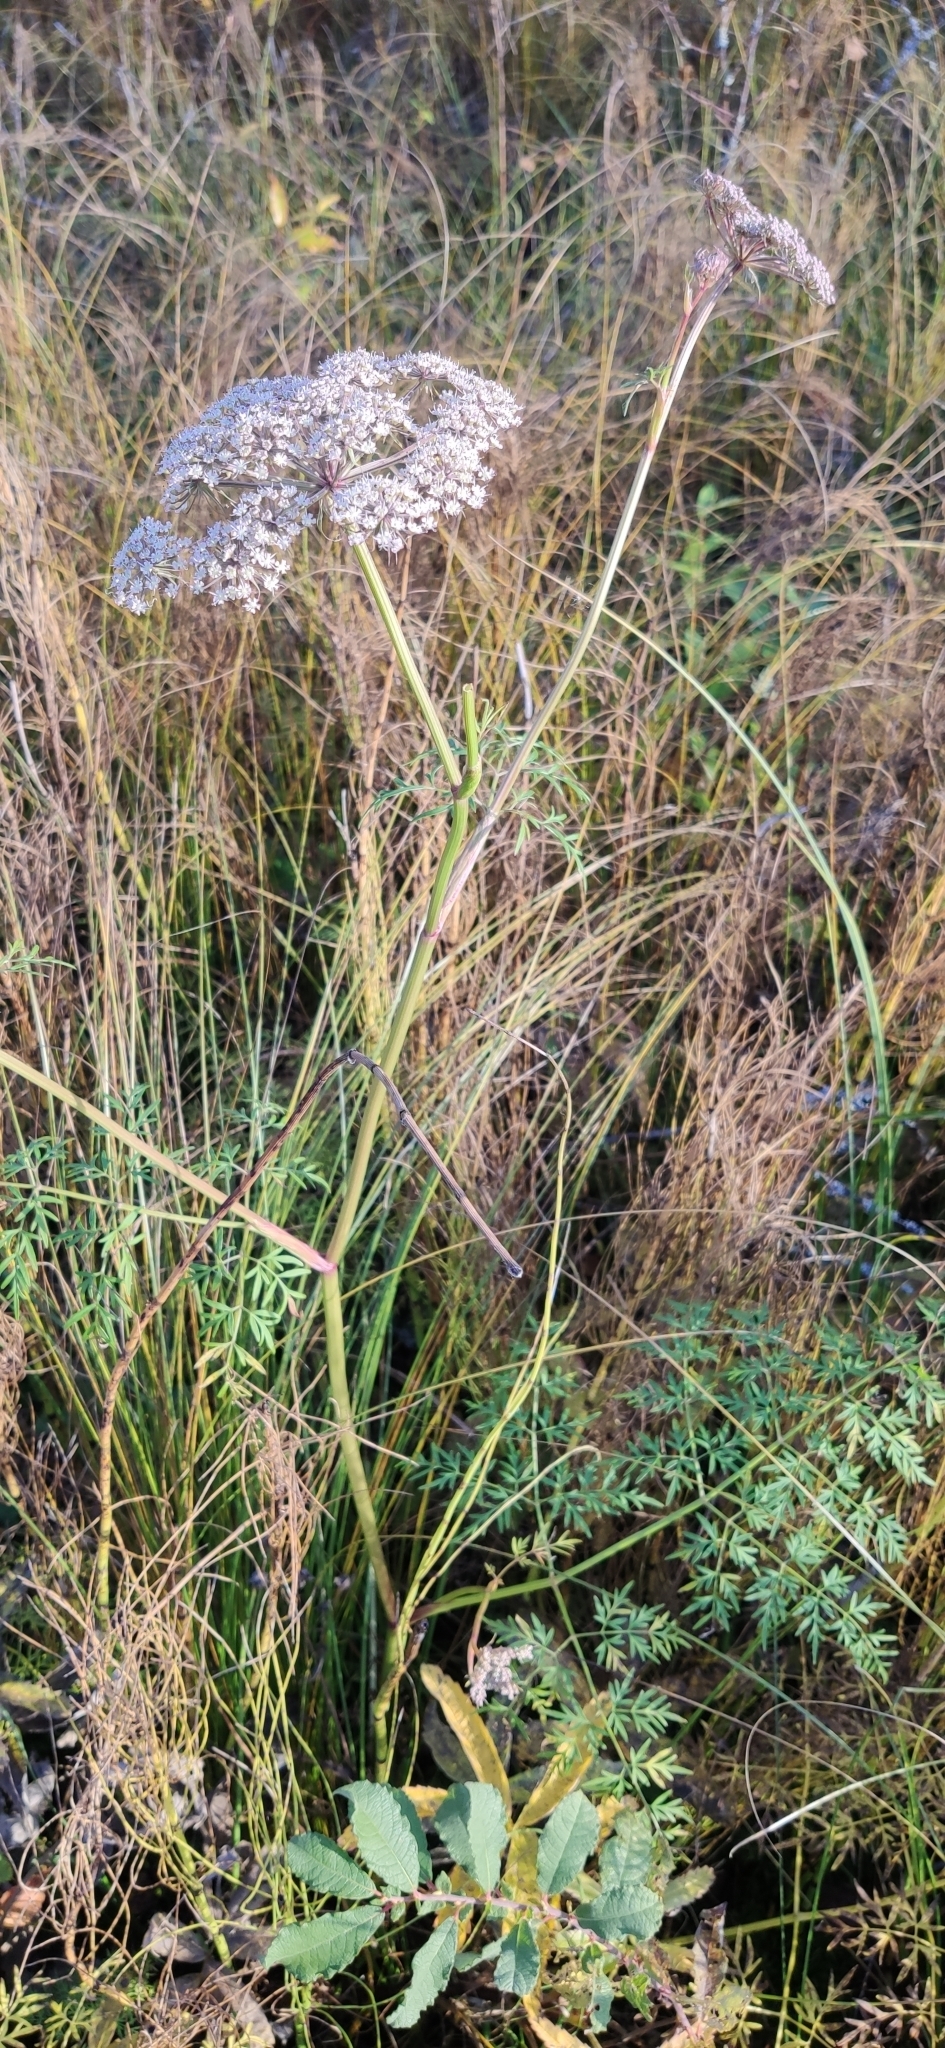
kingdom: Plantae
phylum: Tracheophyta
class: Magnoliopsida
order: Apiales
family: Apiaceae
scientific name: Apiaceae
